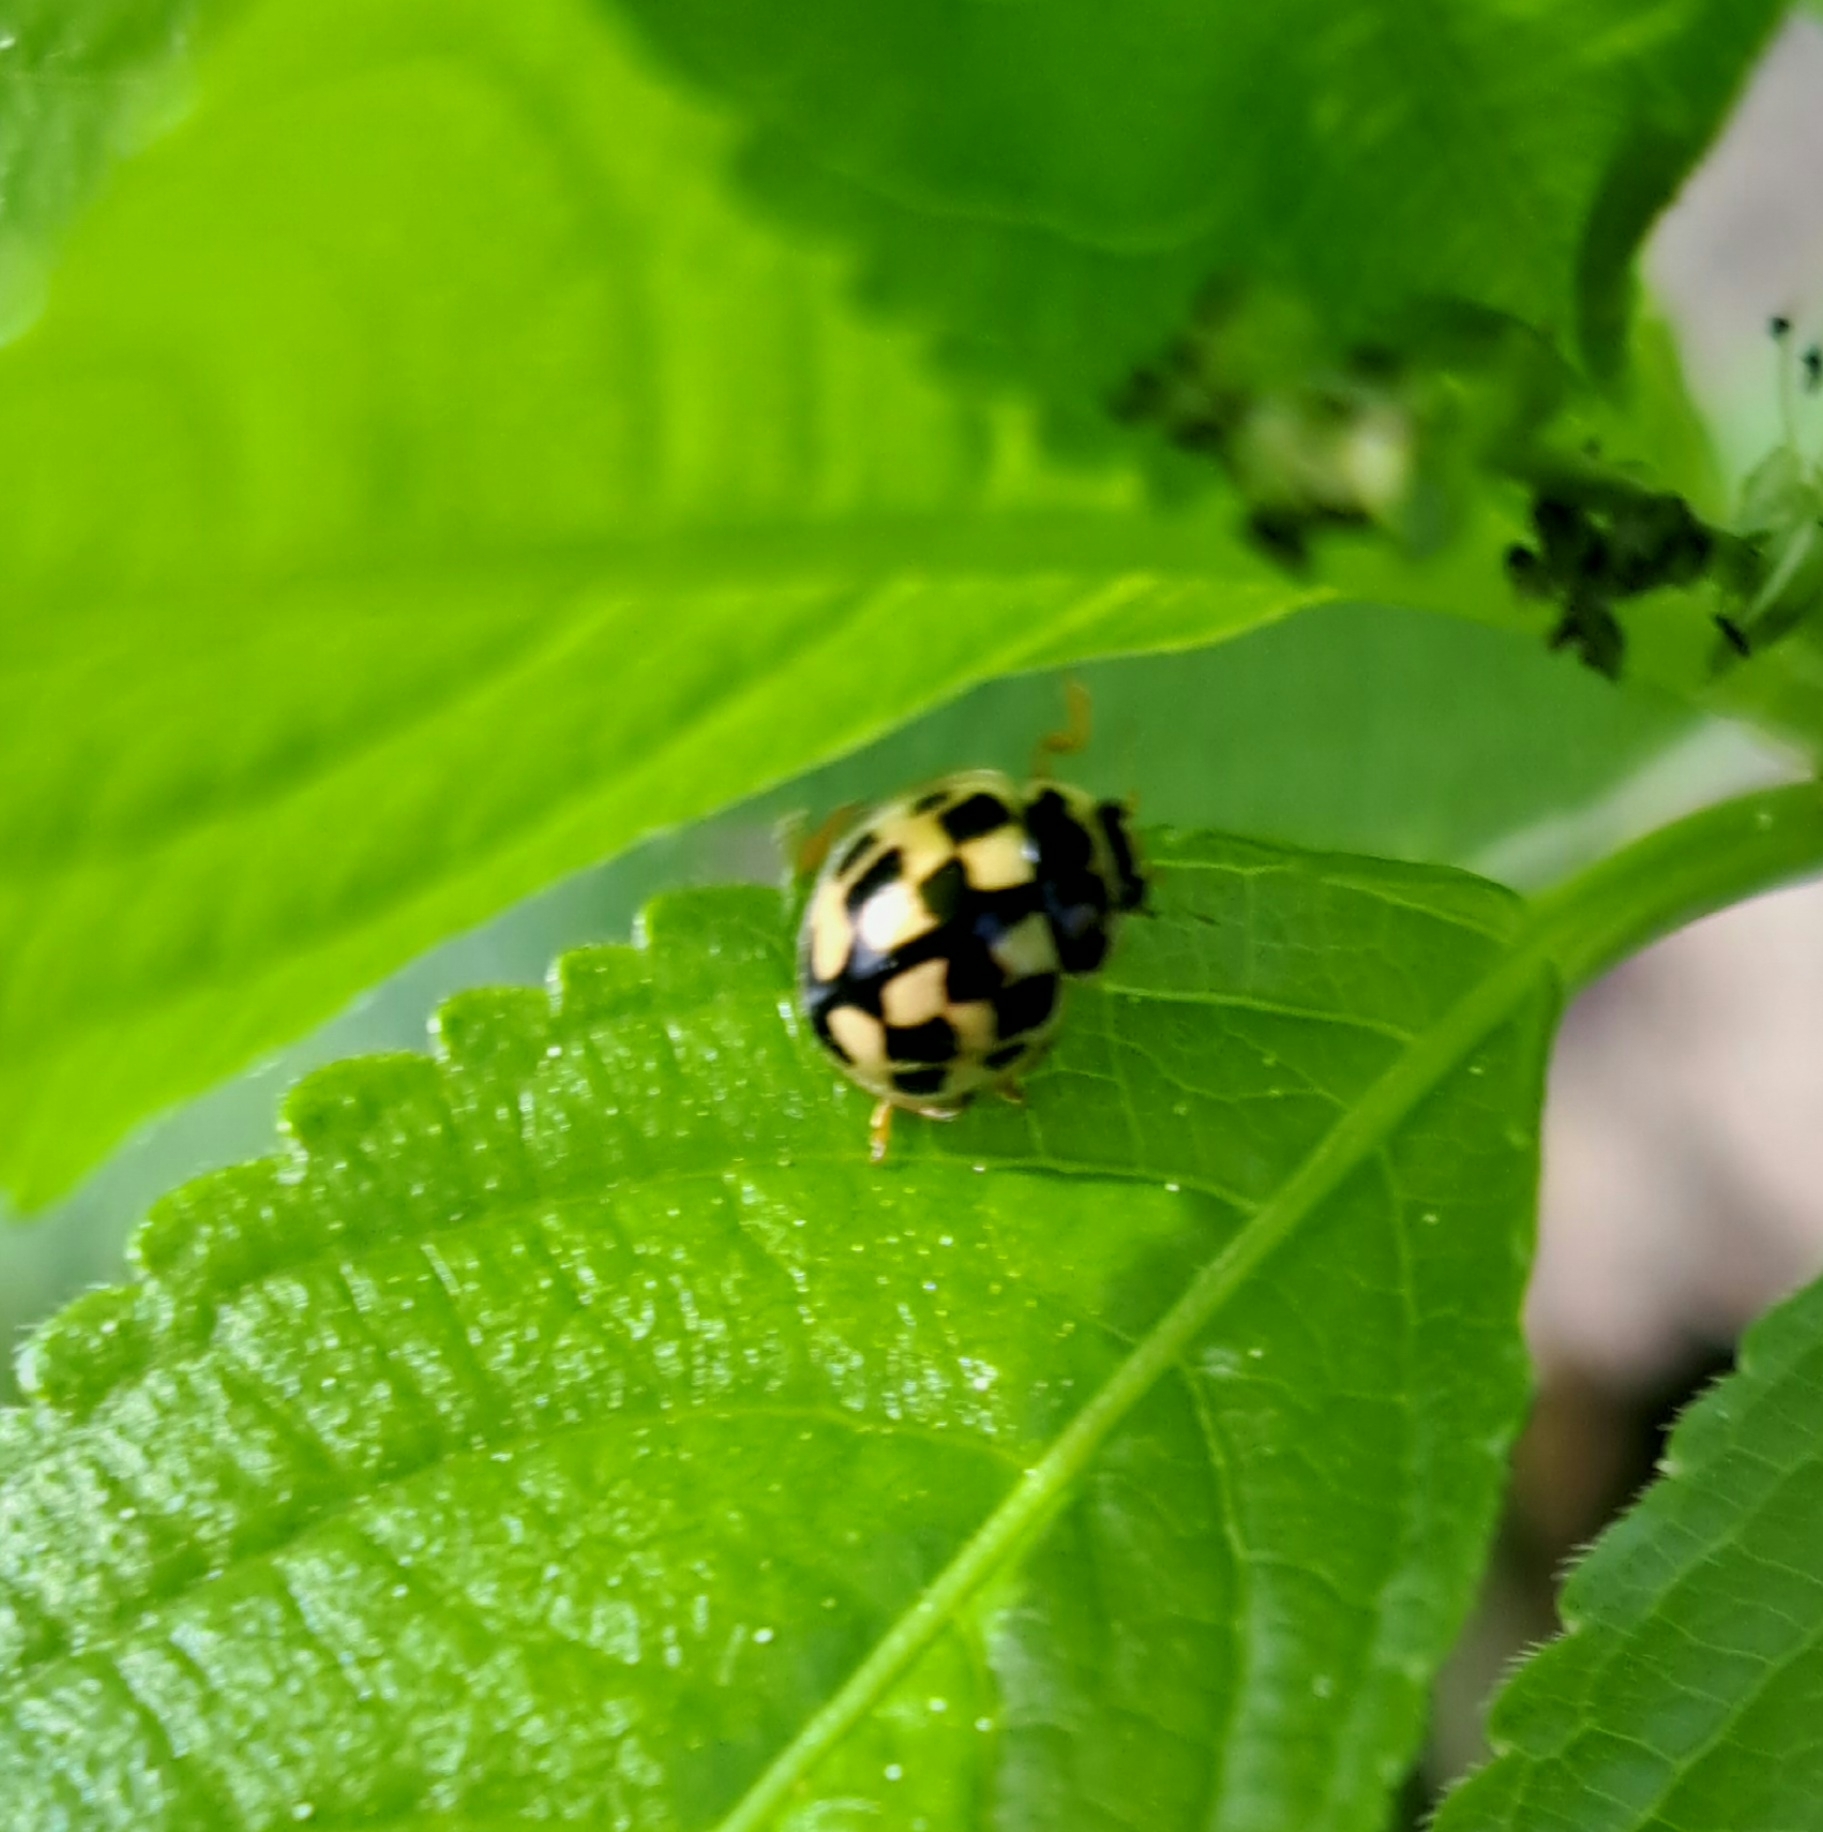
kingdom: Animalia
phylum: Arthropoda
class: Insecta
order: Coleoptera
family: Coccinellidae
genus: Propylaea
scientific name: Propylaea quatuordecimpunctata
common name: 14-spotted ladybird beetle
